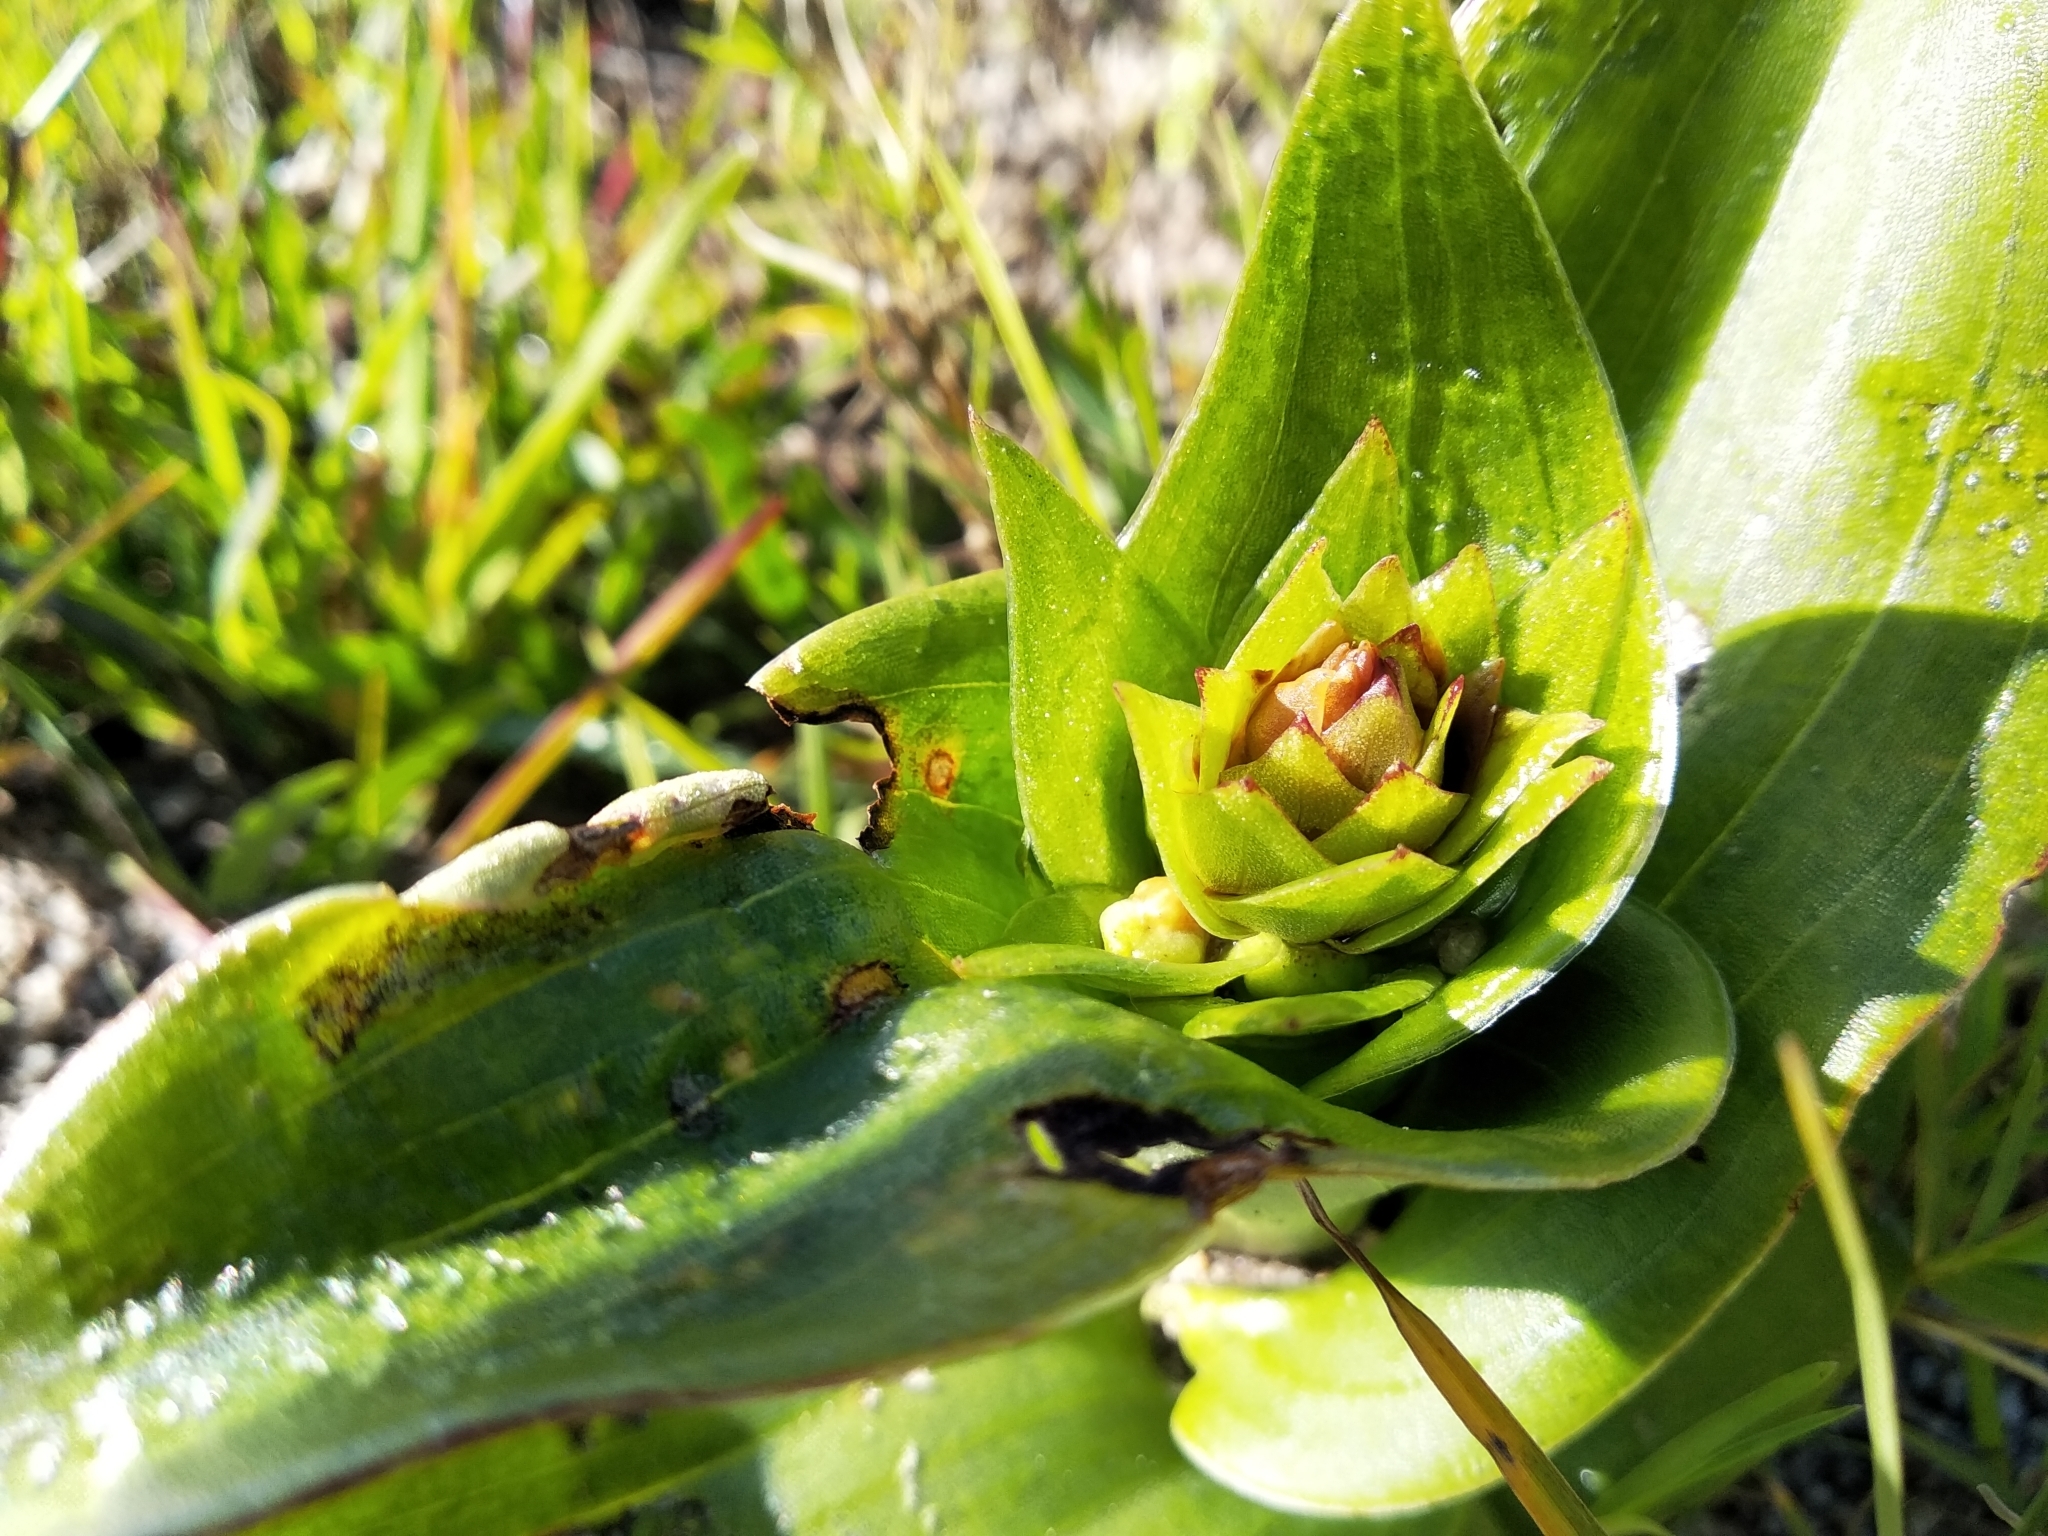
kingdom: Plantae
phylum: Tracheophyta
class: Liliopsida
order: Asparagales
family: Orchidaceae
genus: Satyrium
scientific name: Satyrium coriifolium
